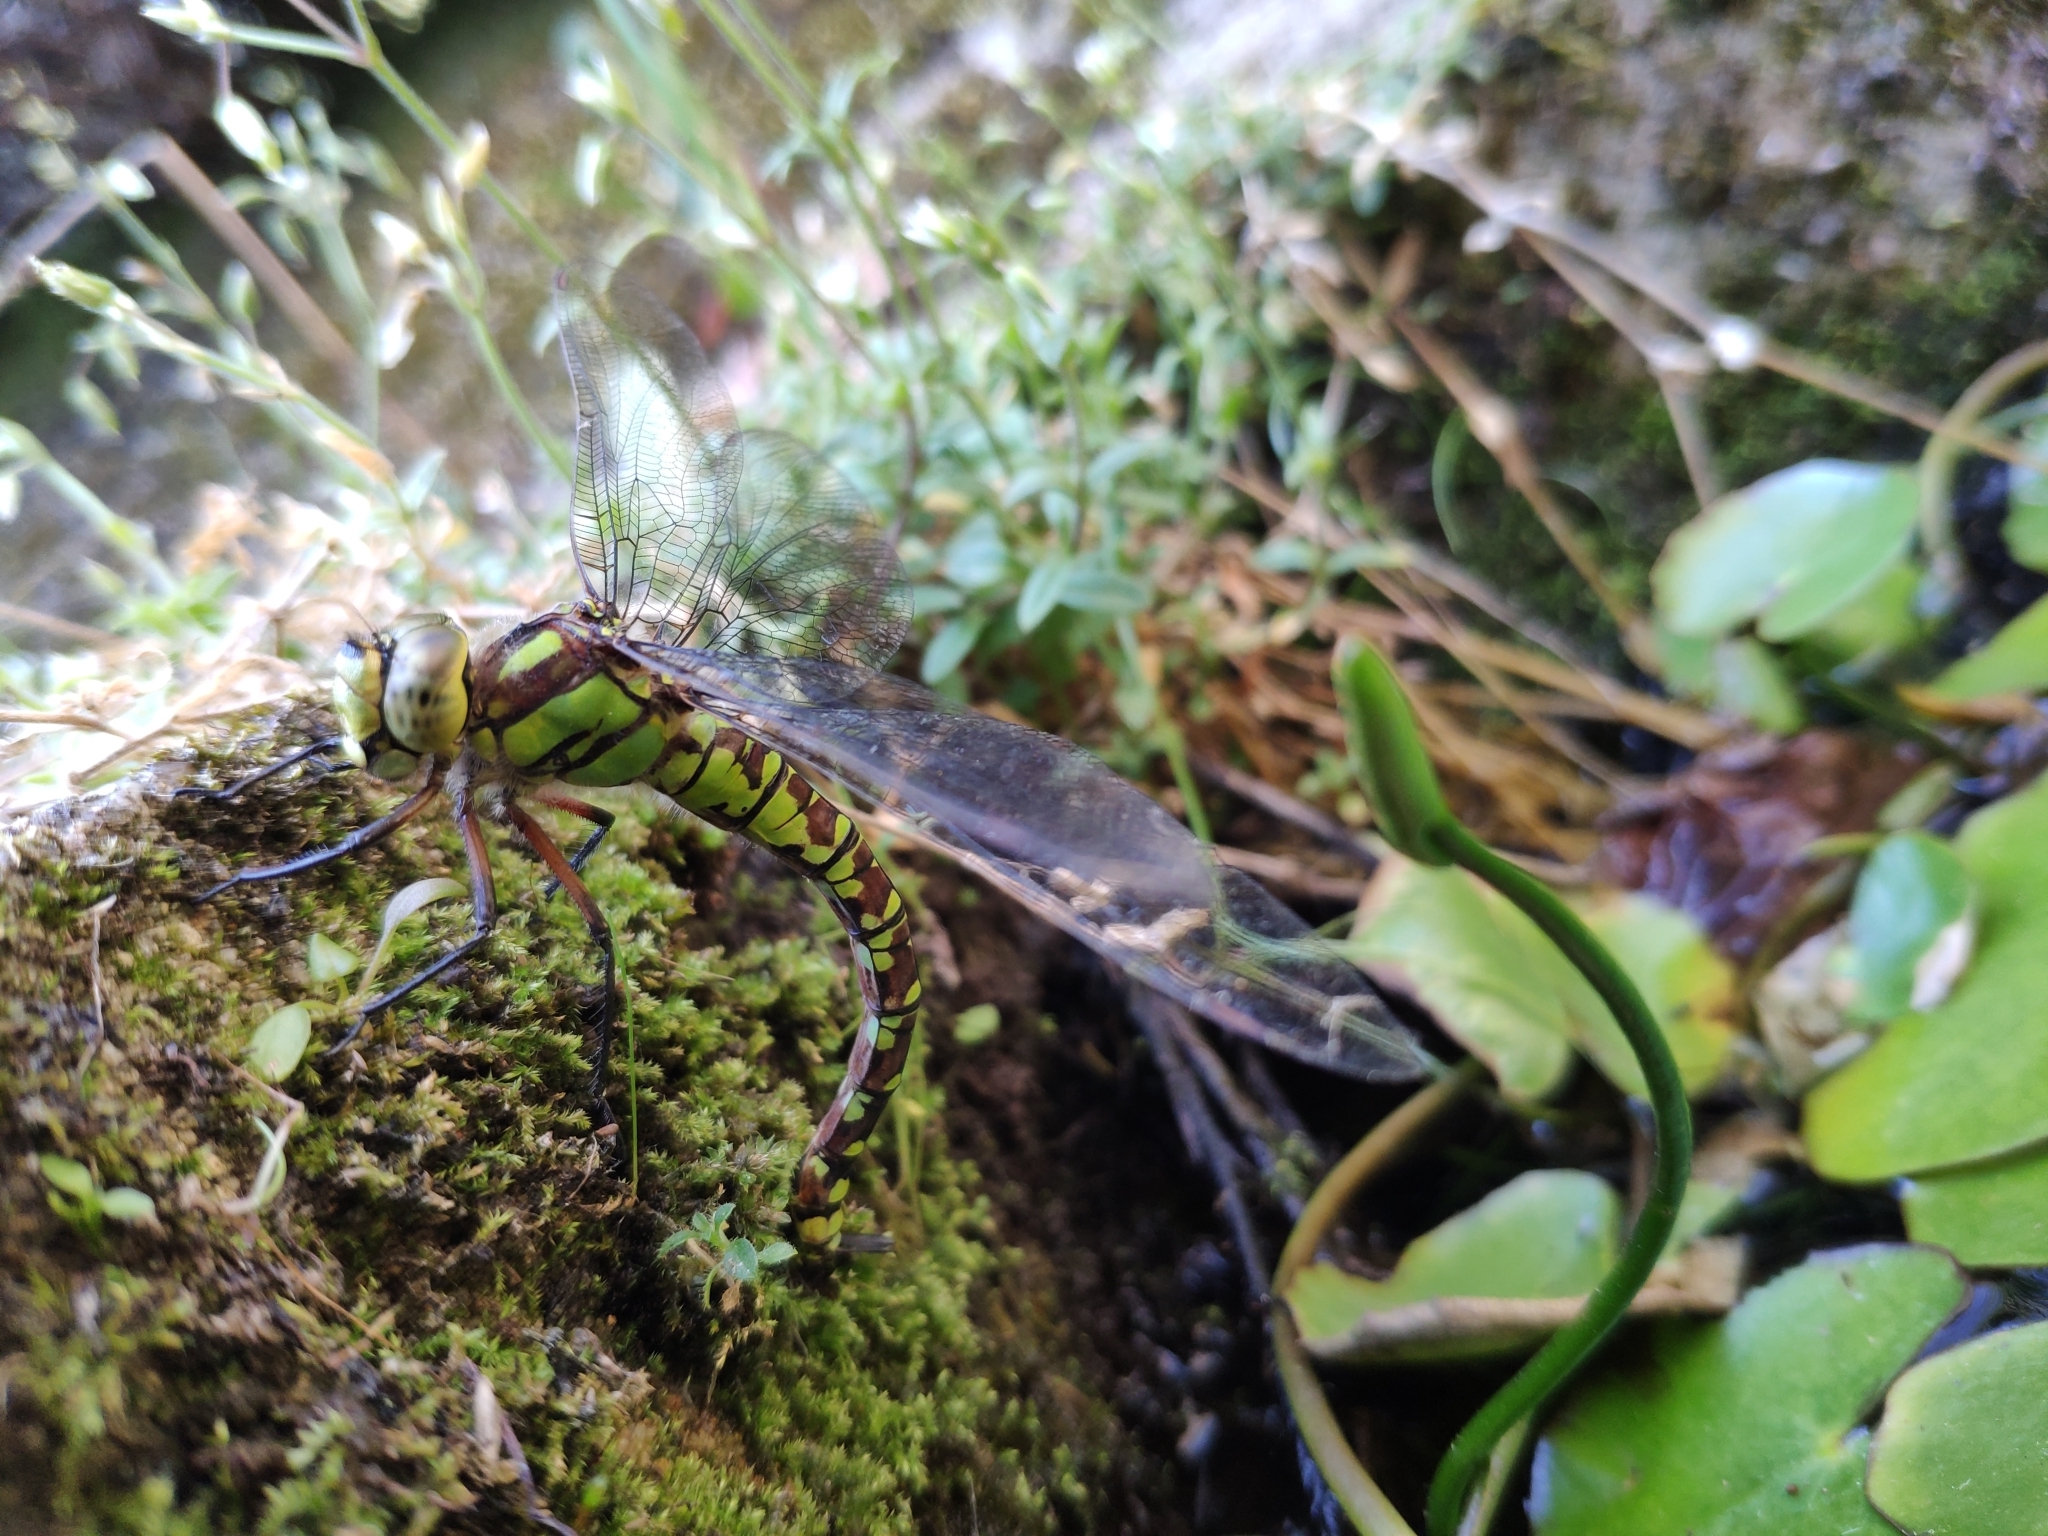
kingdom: Animalia
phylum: Arthropoda
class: Insecta
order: Odonata
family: Aeshnidae
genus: Aeshna
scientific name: Aeshna cyanea
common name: Southern hawker
